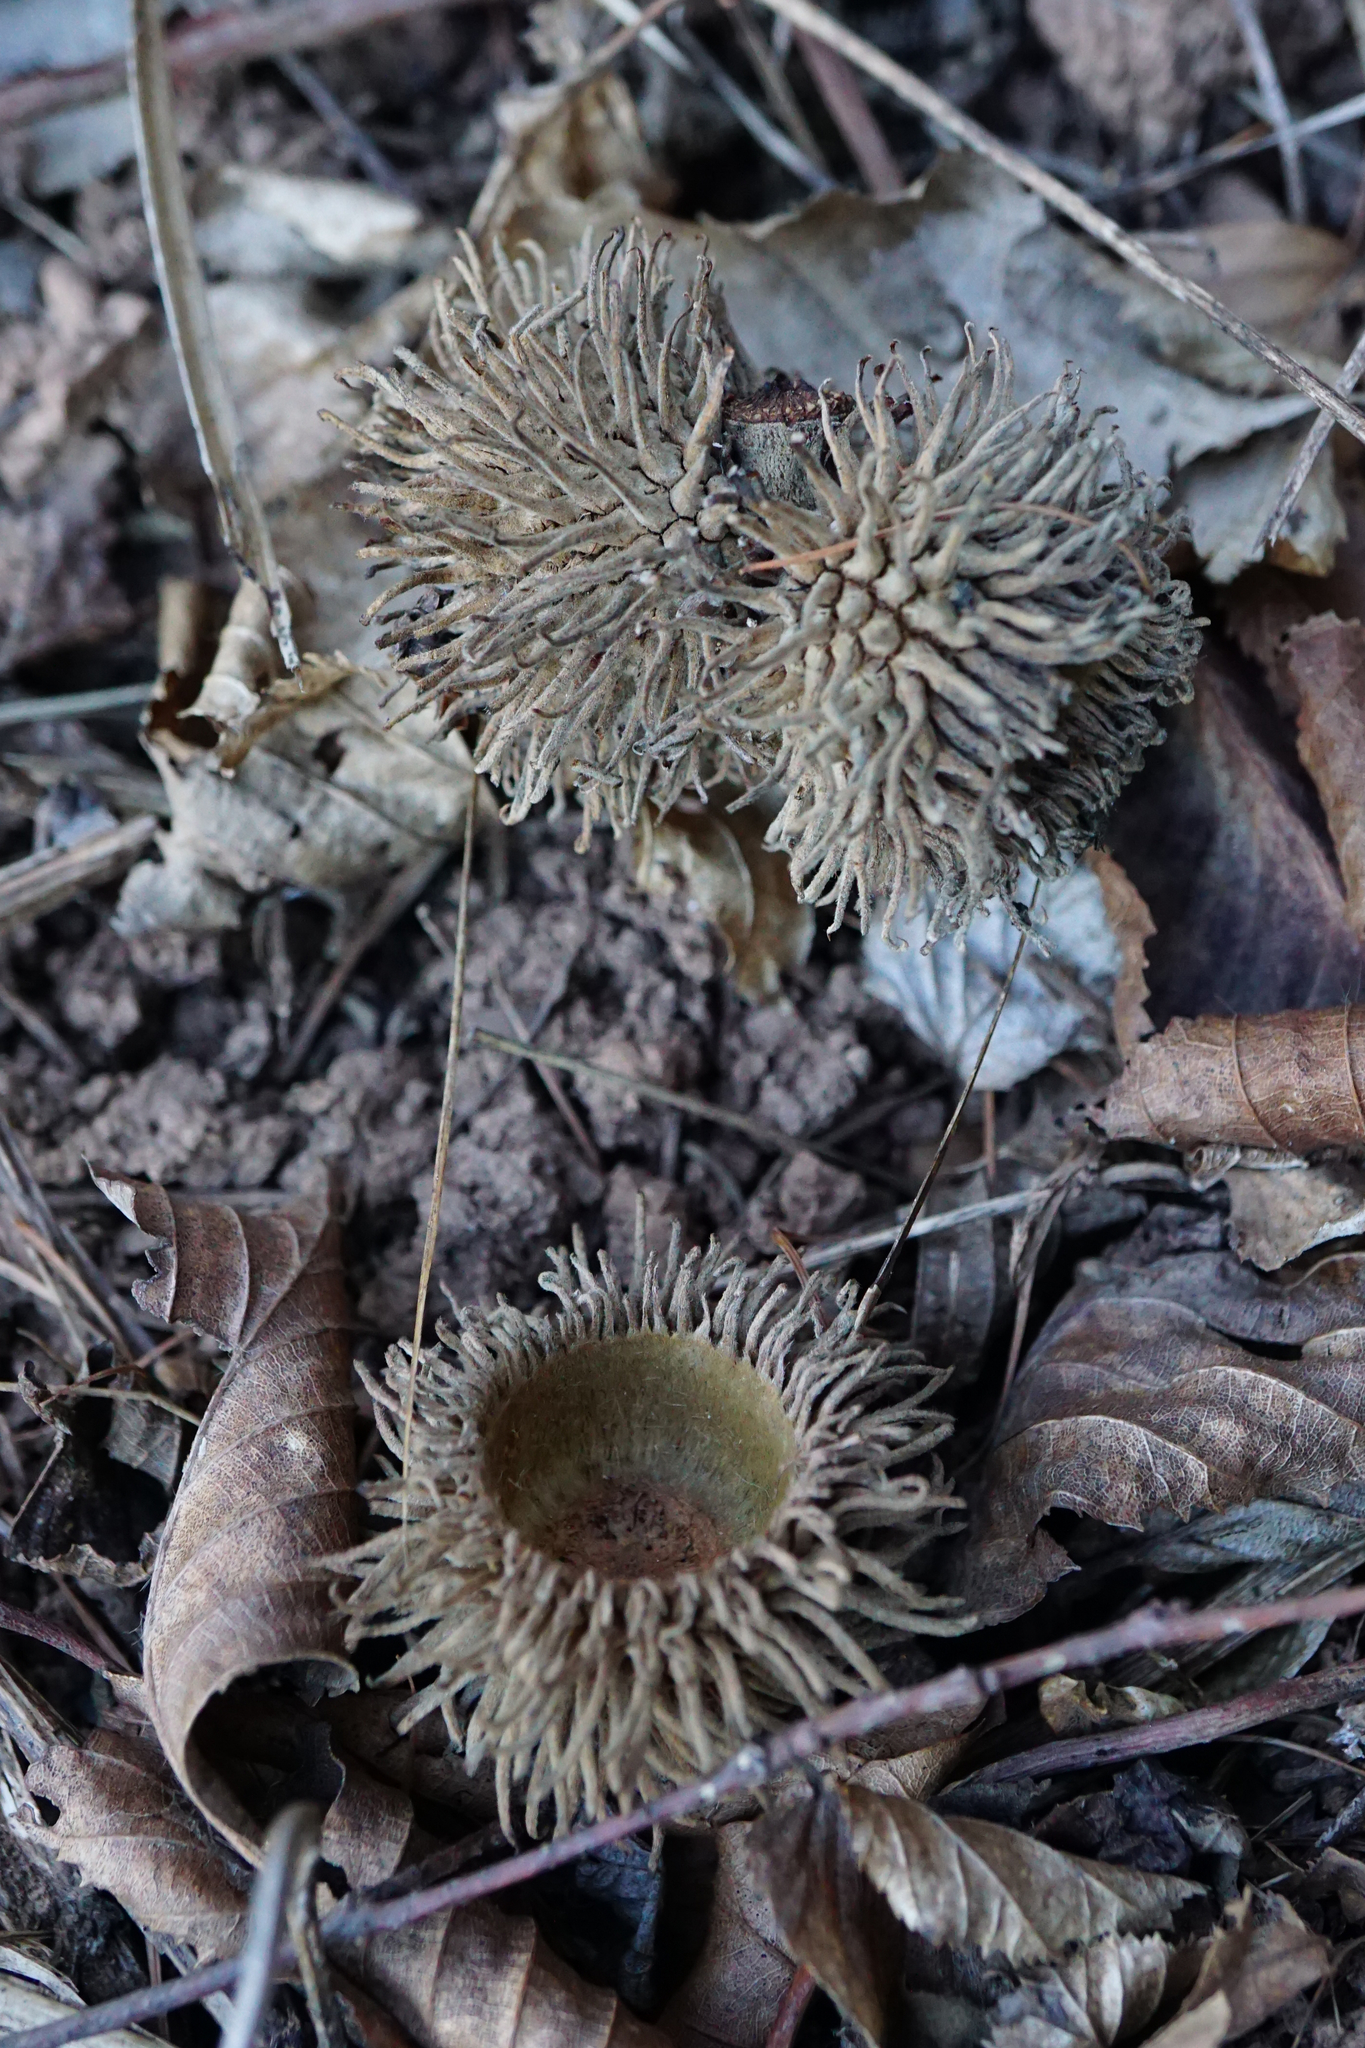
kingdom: Plantae
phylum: Tracheophyta
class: Magnoliopsida
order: Fagales
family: Fagaceae
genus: Quercus
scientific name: Quercus cerris
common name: Turkey oak
